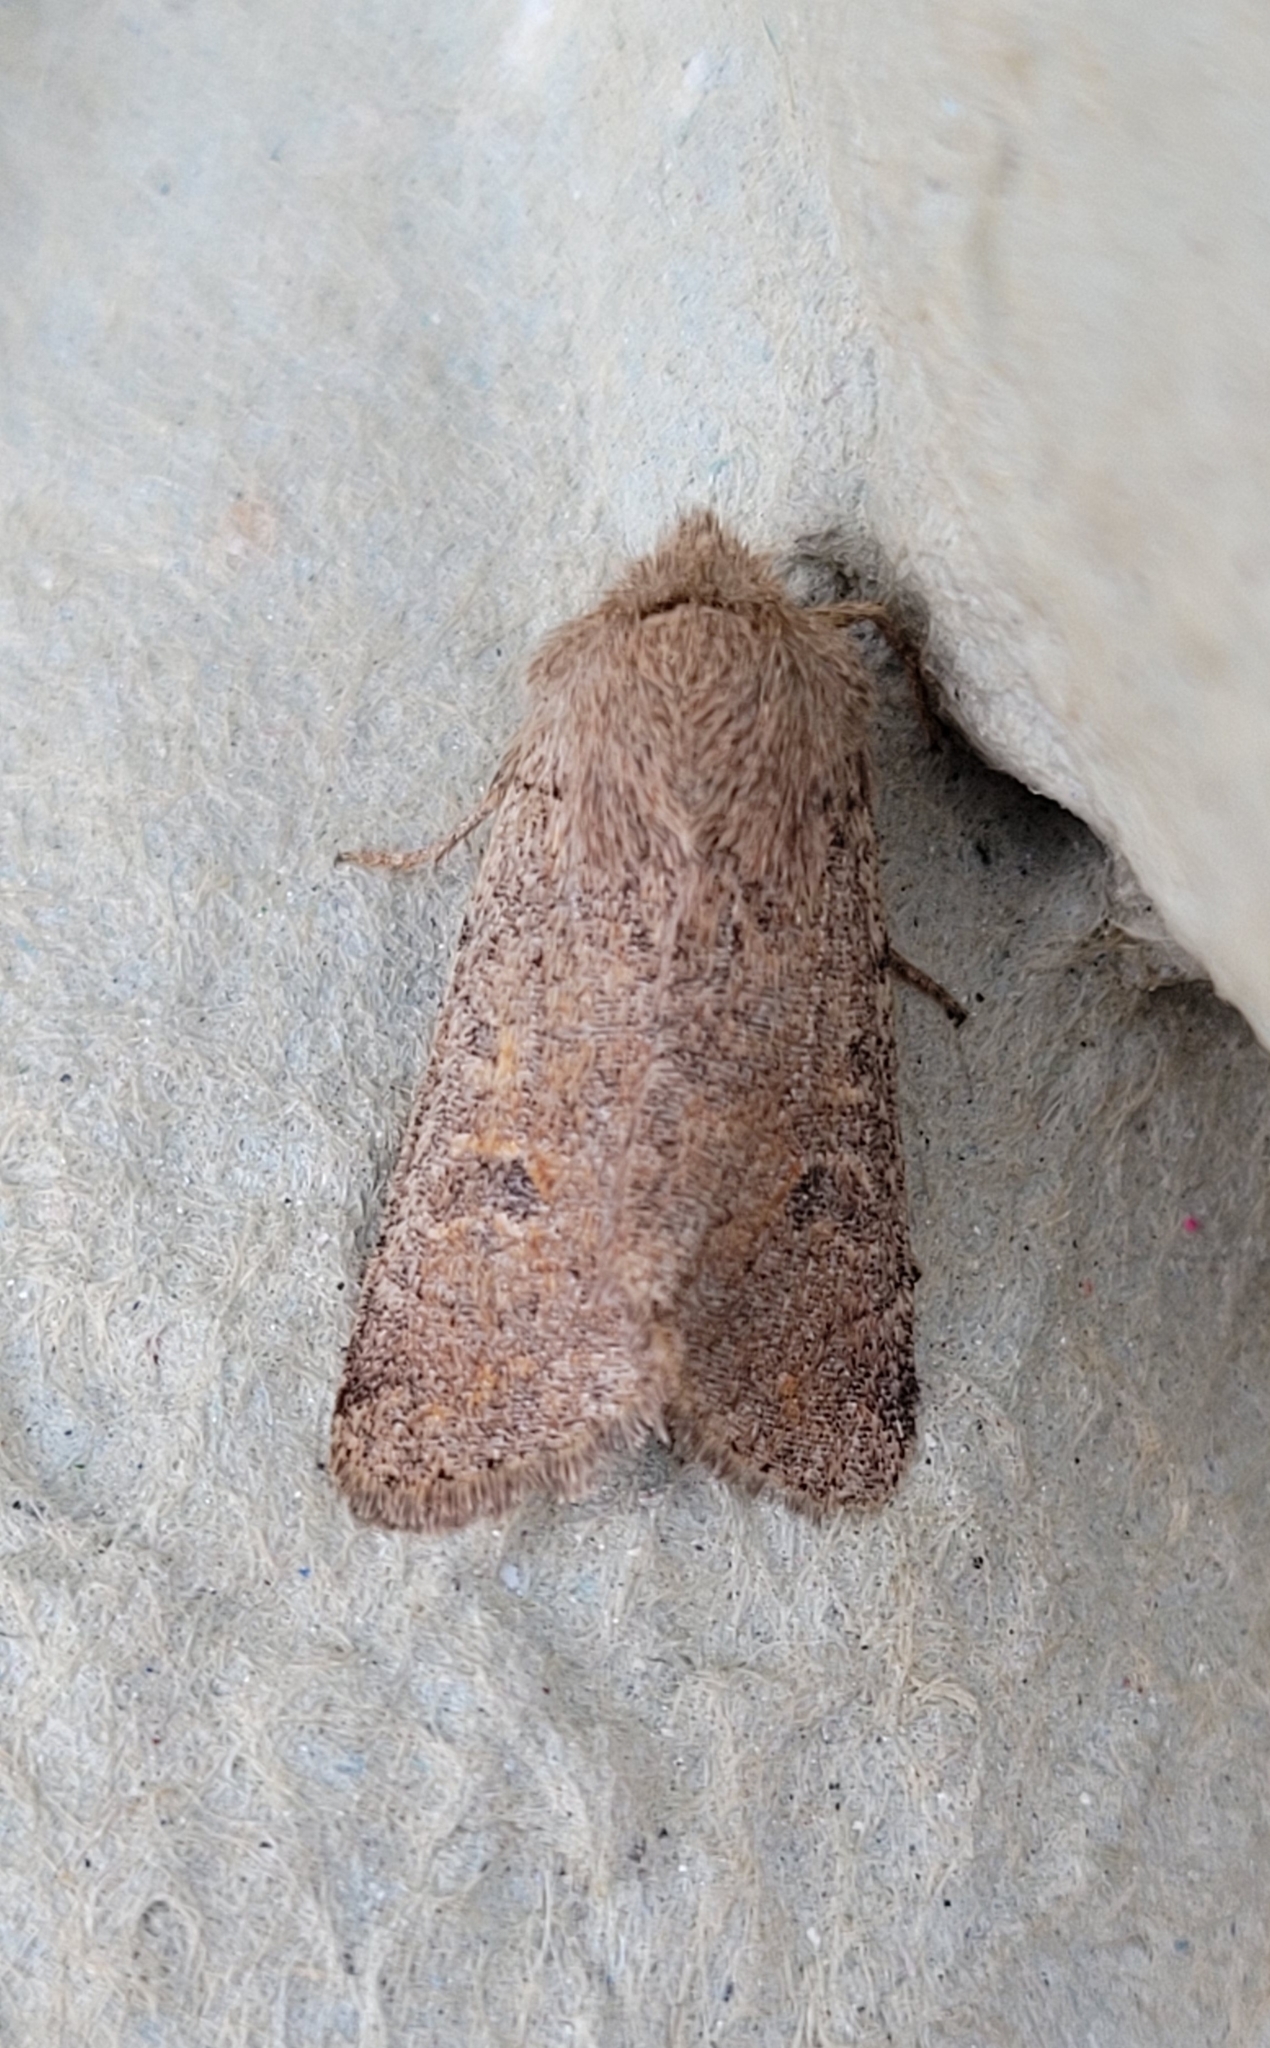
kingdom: Animalia
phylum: Arthropoda
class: Insecta
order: Lepidoptera
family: Noctuidae
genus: Orthosia
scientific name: Orthosia cruda
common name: Small quaker
